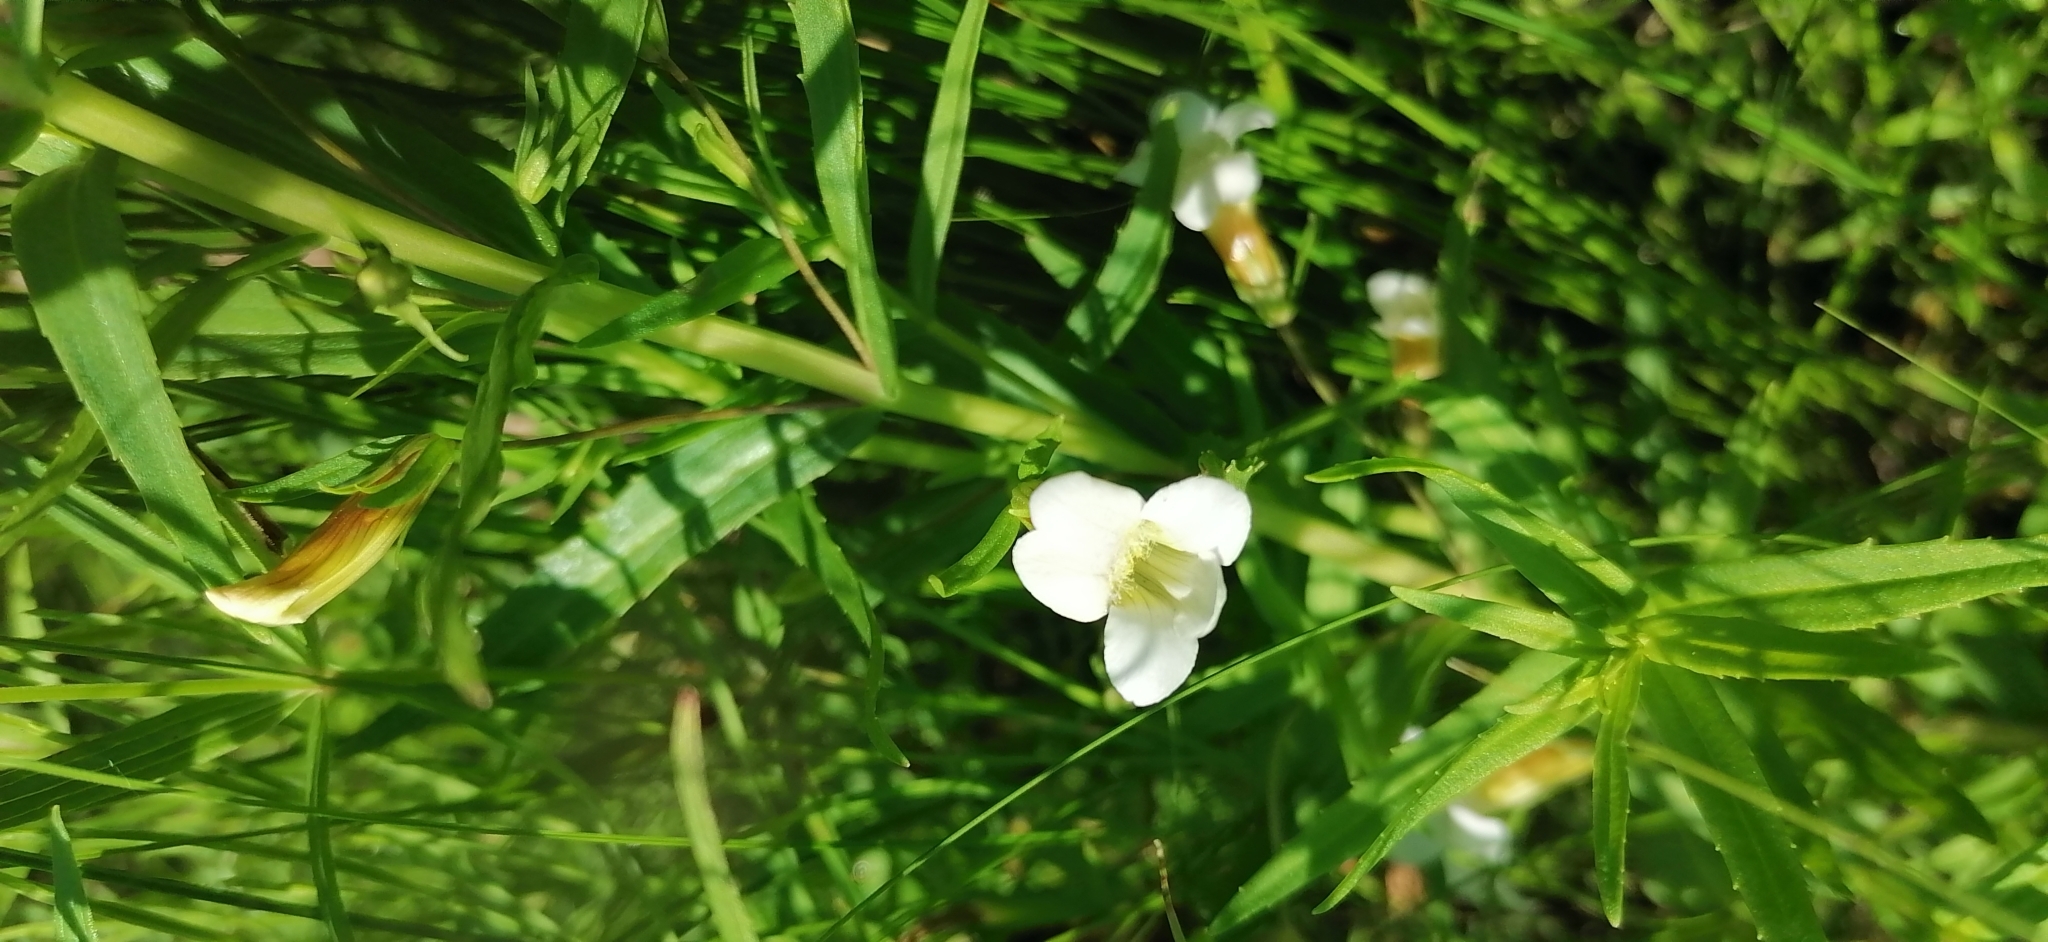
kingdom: Plantae
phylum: Tracheophyta
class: Magnoliopsida
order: Lamiales
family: Plantaginaceae
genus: Gratiola
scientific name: Gratiola officinalis
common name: Gratiola
